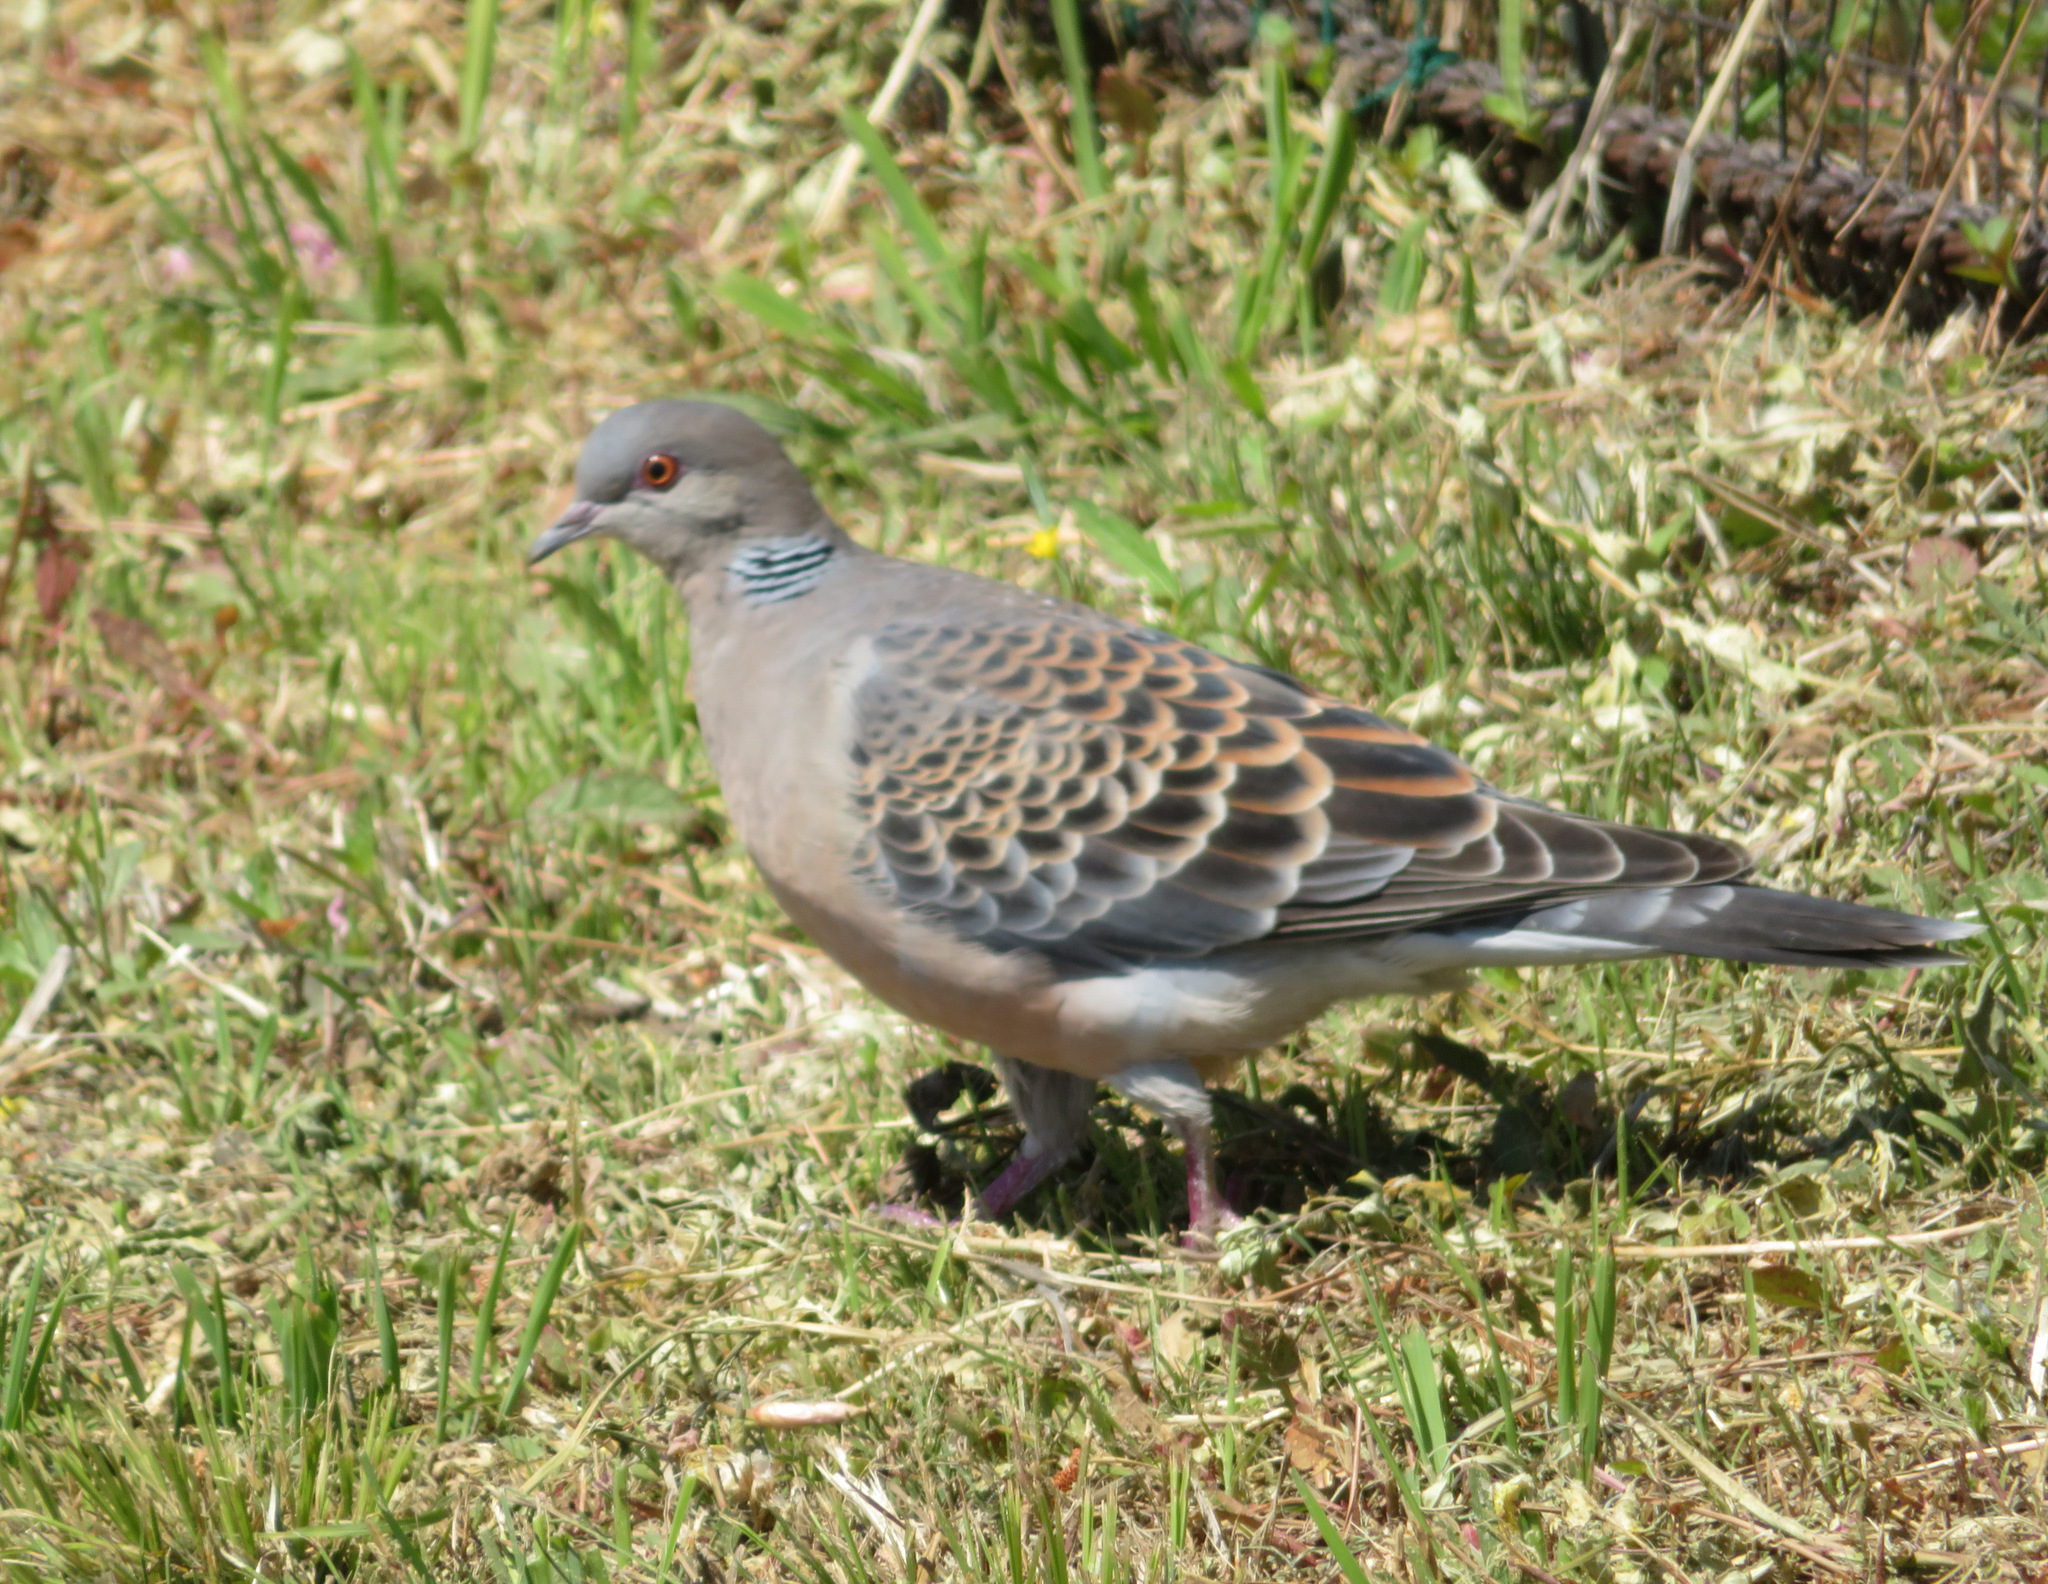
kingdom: Animalia
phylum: Chordata
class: Aves
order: Columbiformes
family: Columbidae
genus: Streptopelia
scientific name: Streptopelia orientalis
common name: Oriental turtle dove
